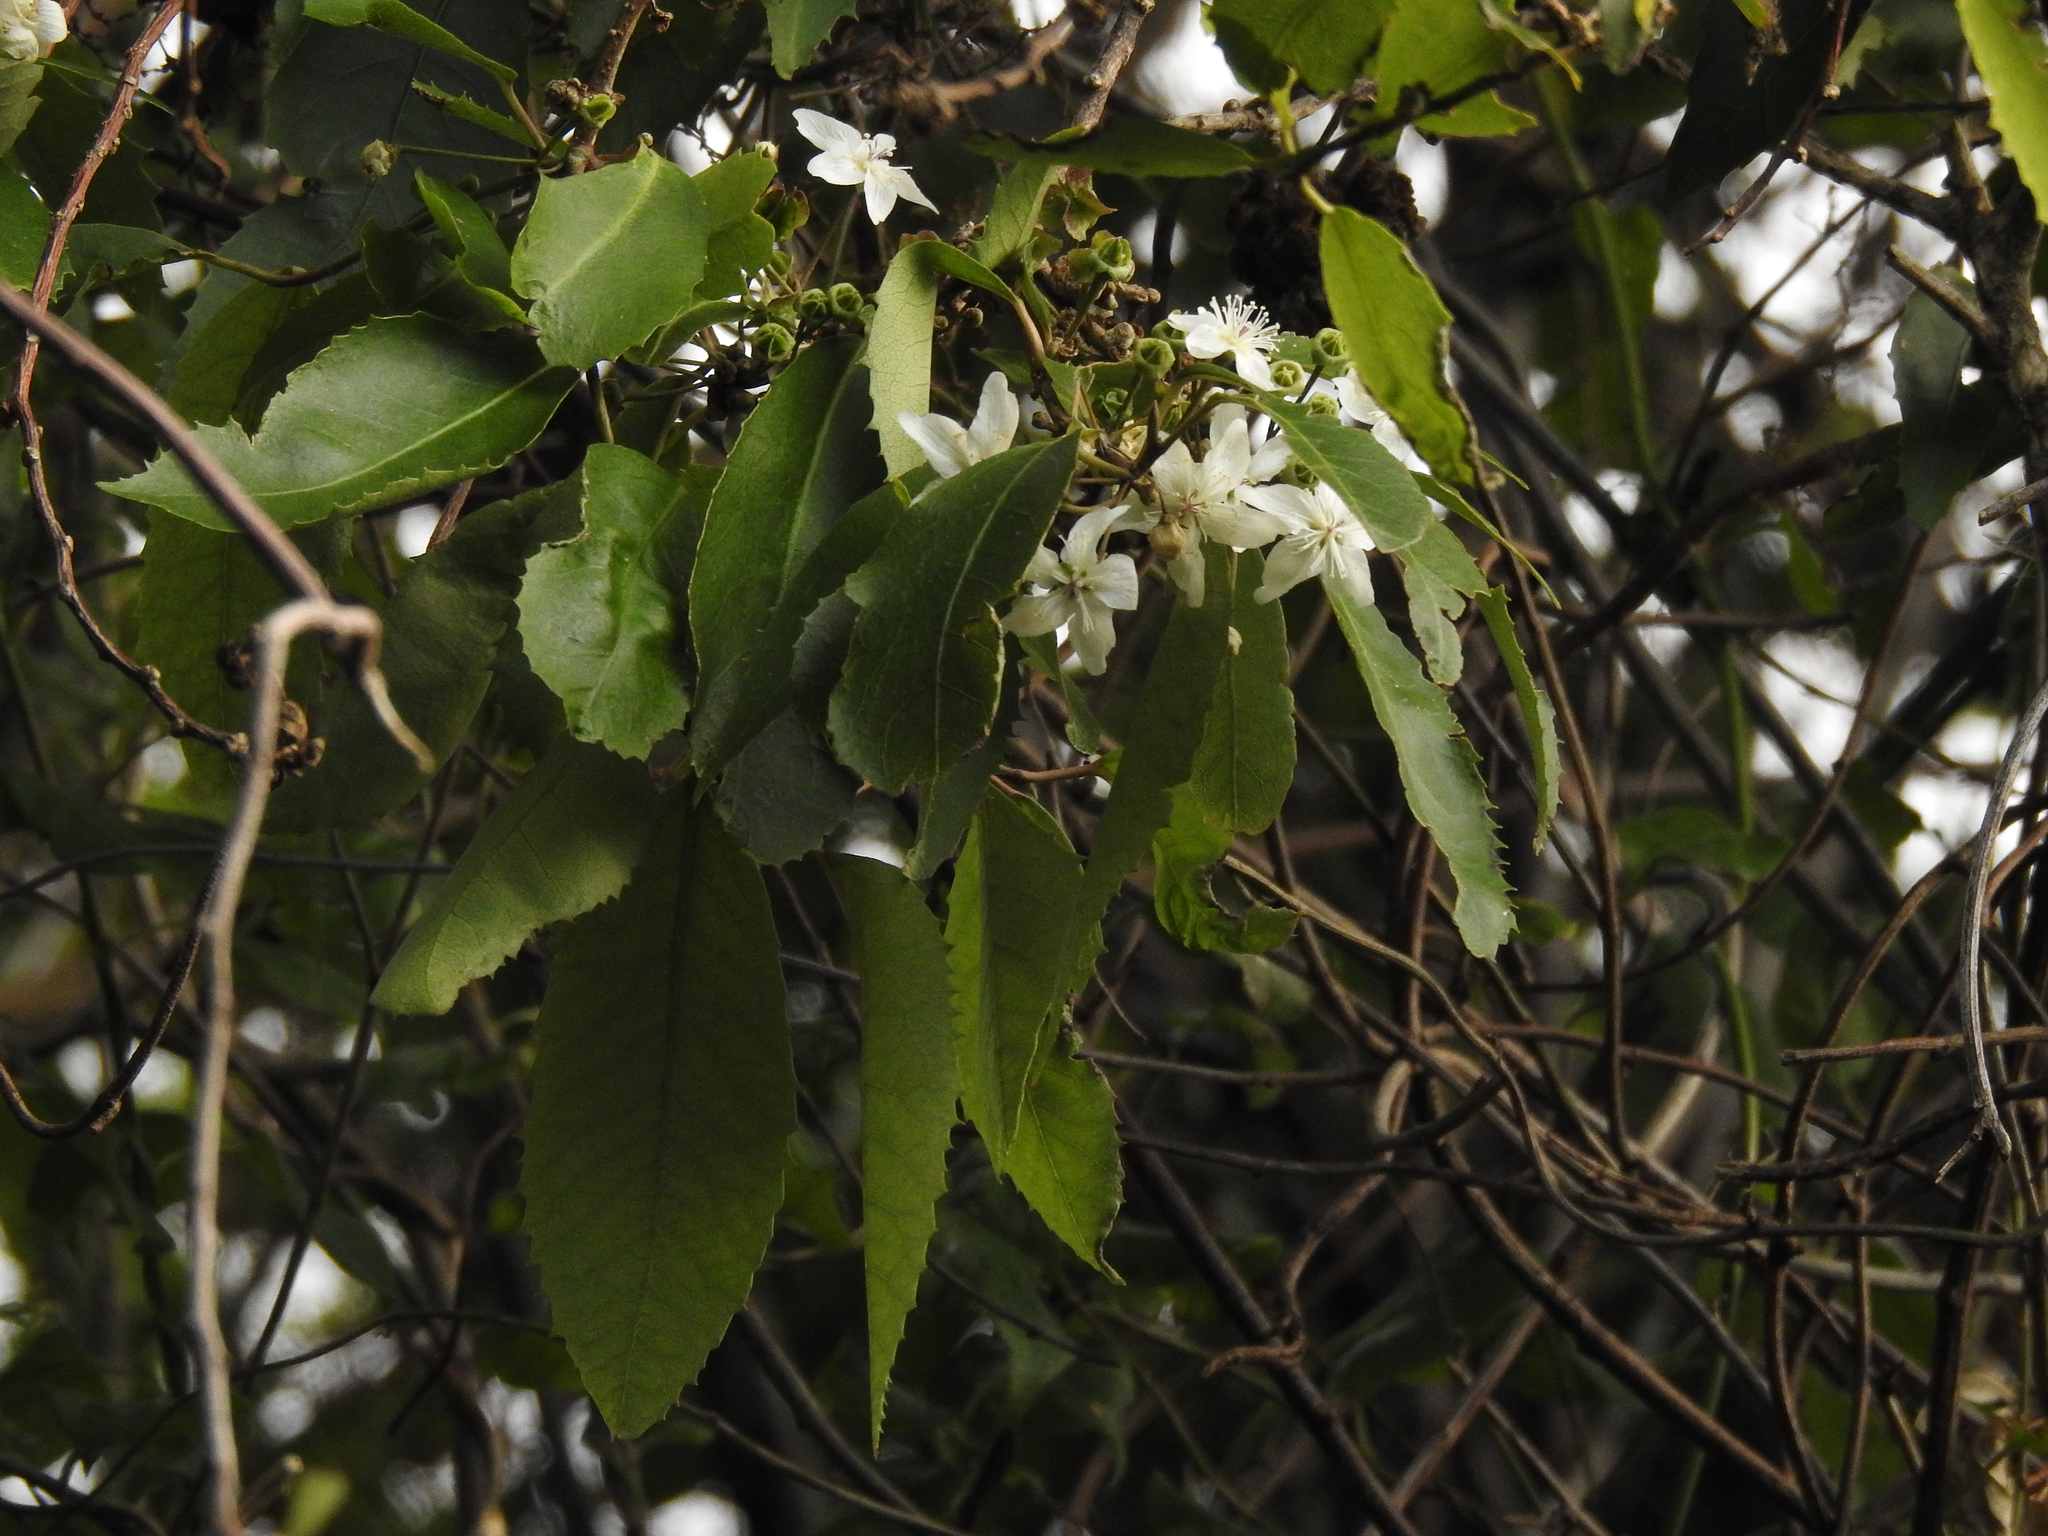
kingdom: Plantae
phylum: Tracheophyta
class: Magnoliopsida
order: Malvales
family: Malvaceae
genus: Hoheria
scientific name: Hoheria sexstylosa
